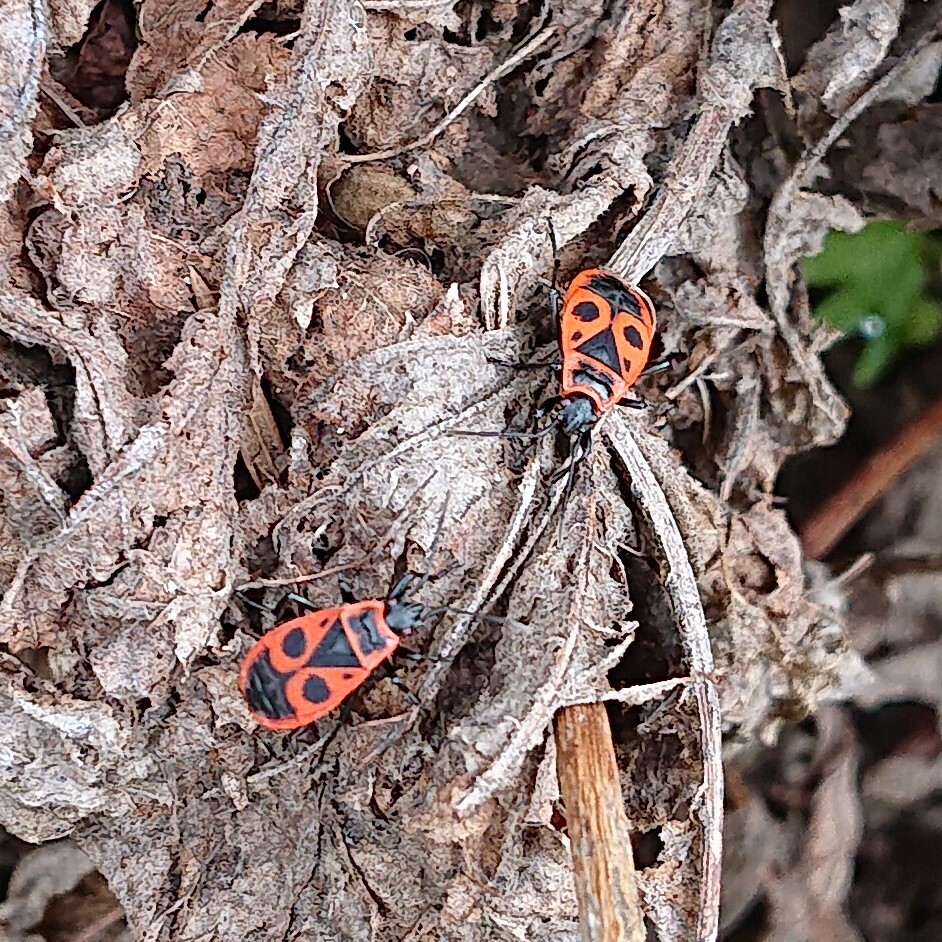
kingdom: Animalia
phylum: Arthropoda
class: Insecta
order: Hemiptera
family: Pyrrhocoridae
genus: Pyrrhocoris
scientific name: Pyrrhocoris apterus
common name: Firebug
